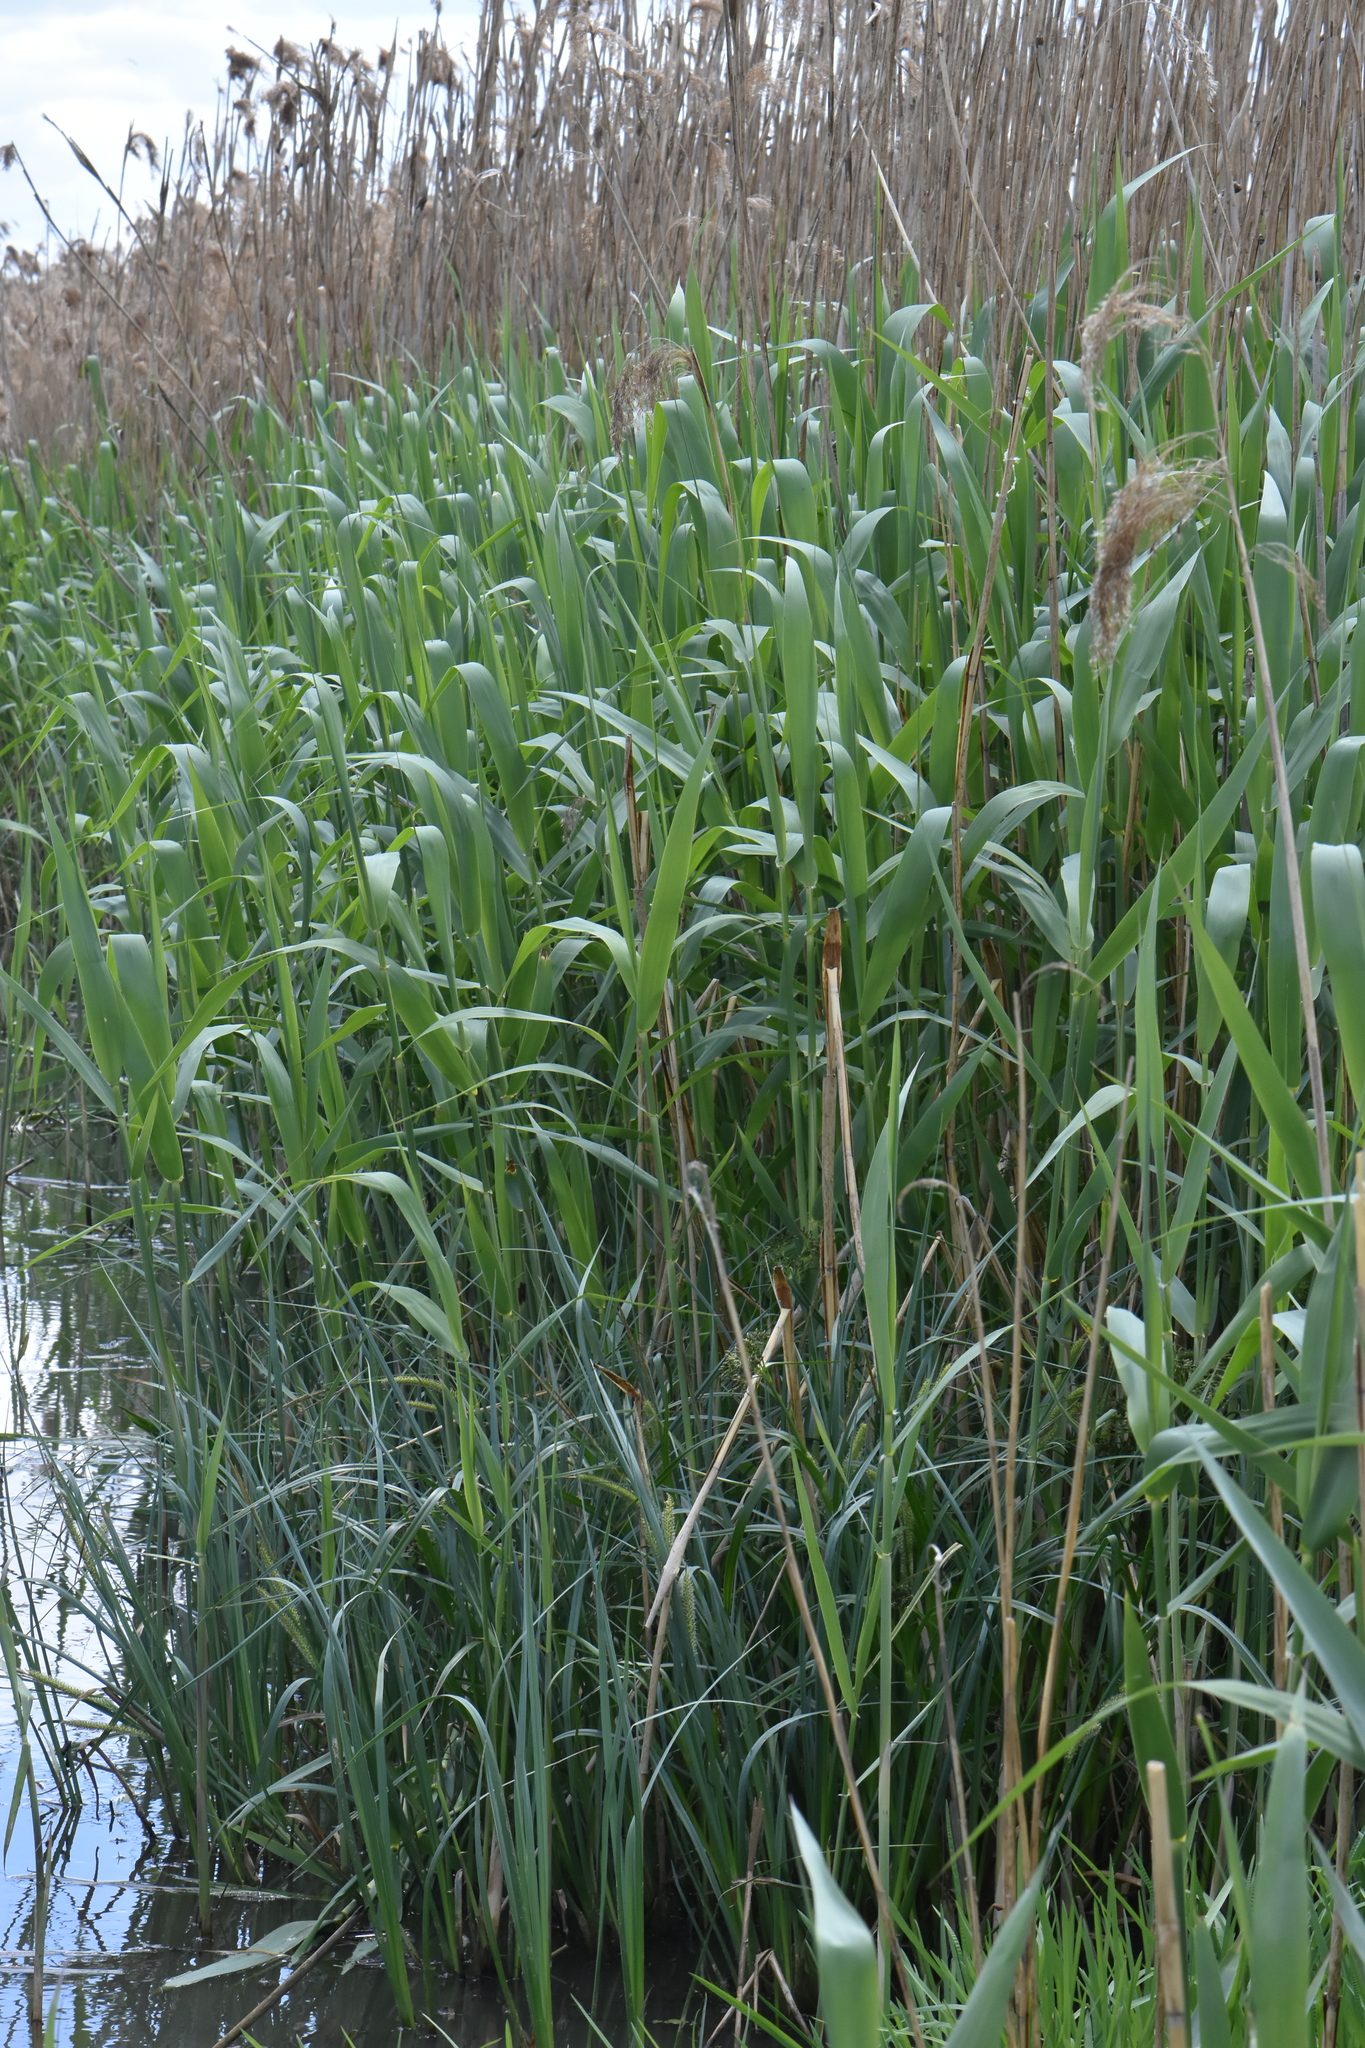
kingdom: Plantae
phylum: Tracheophyta
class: Liliopsida
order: Poales
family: Poaceae
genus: Phragmites
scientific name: Phragmites australis
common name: Common reed
